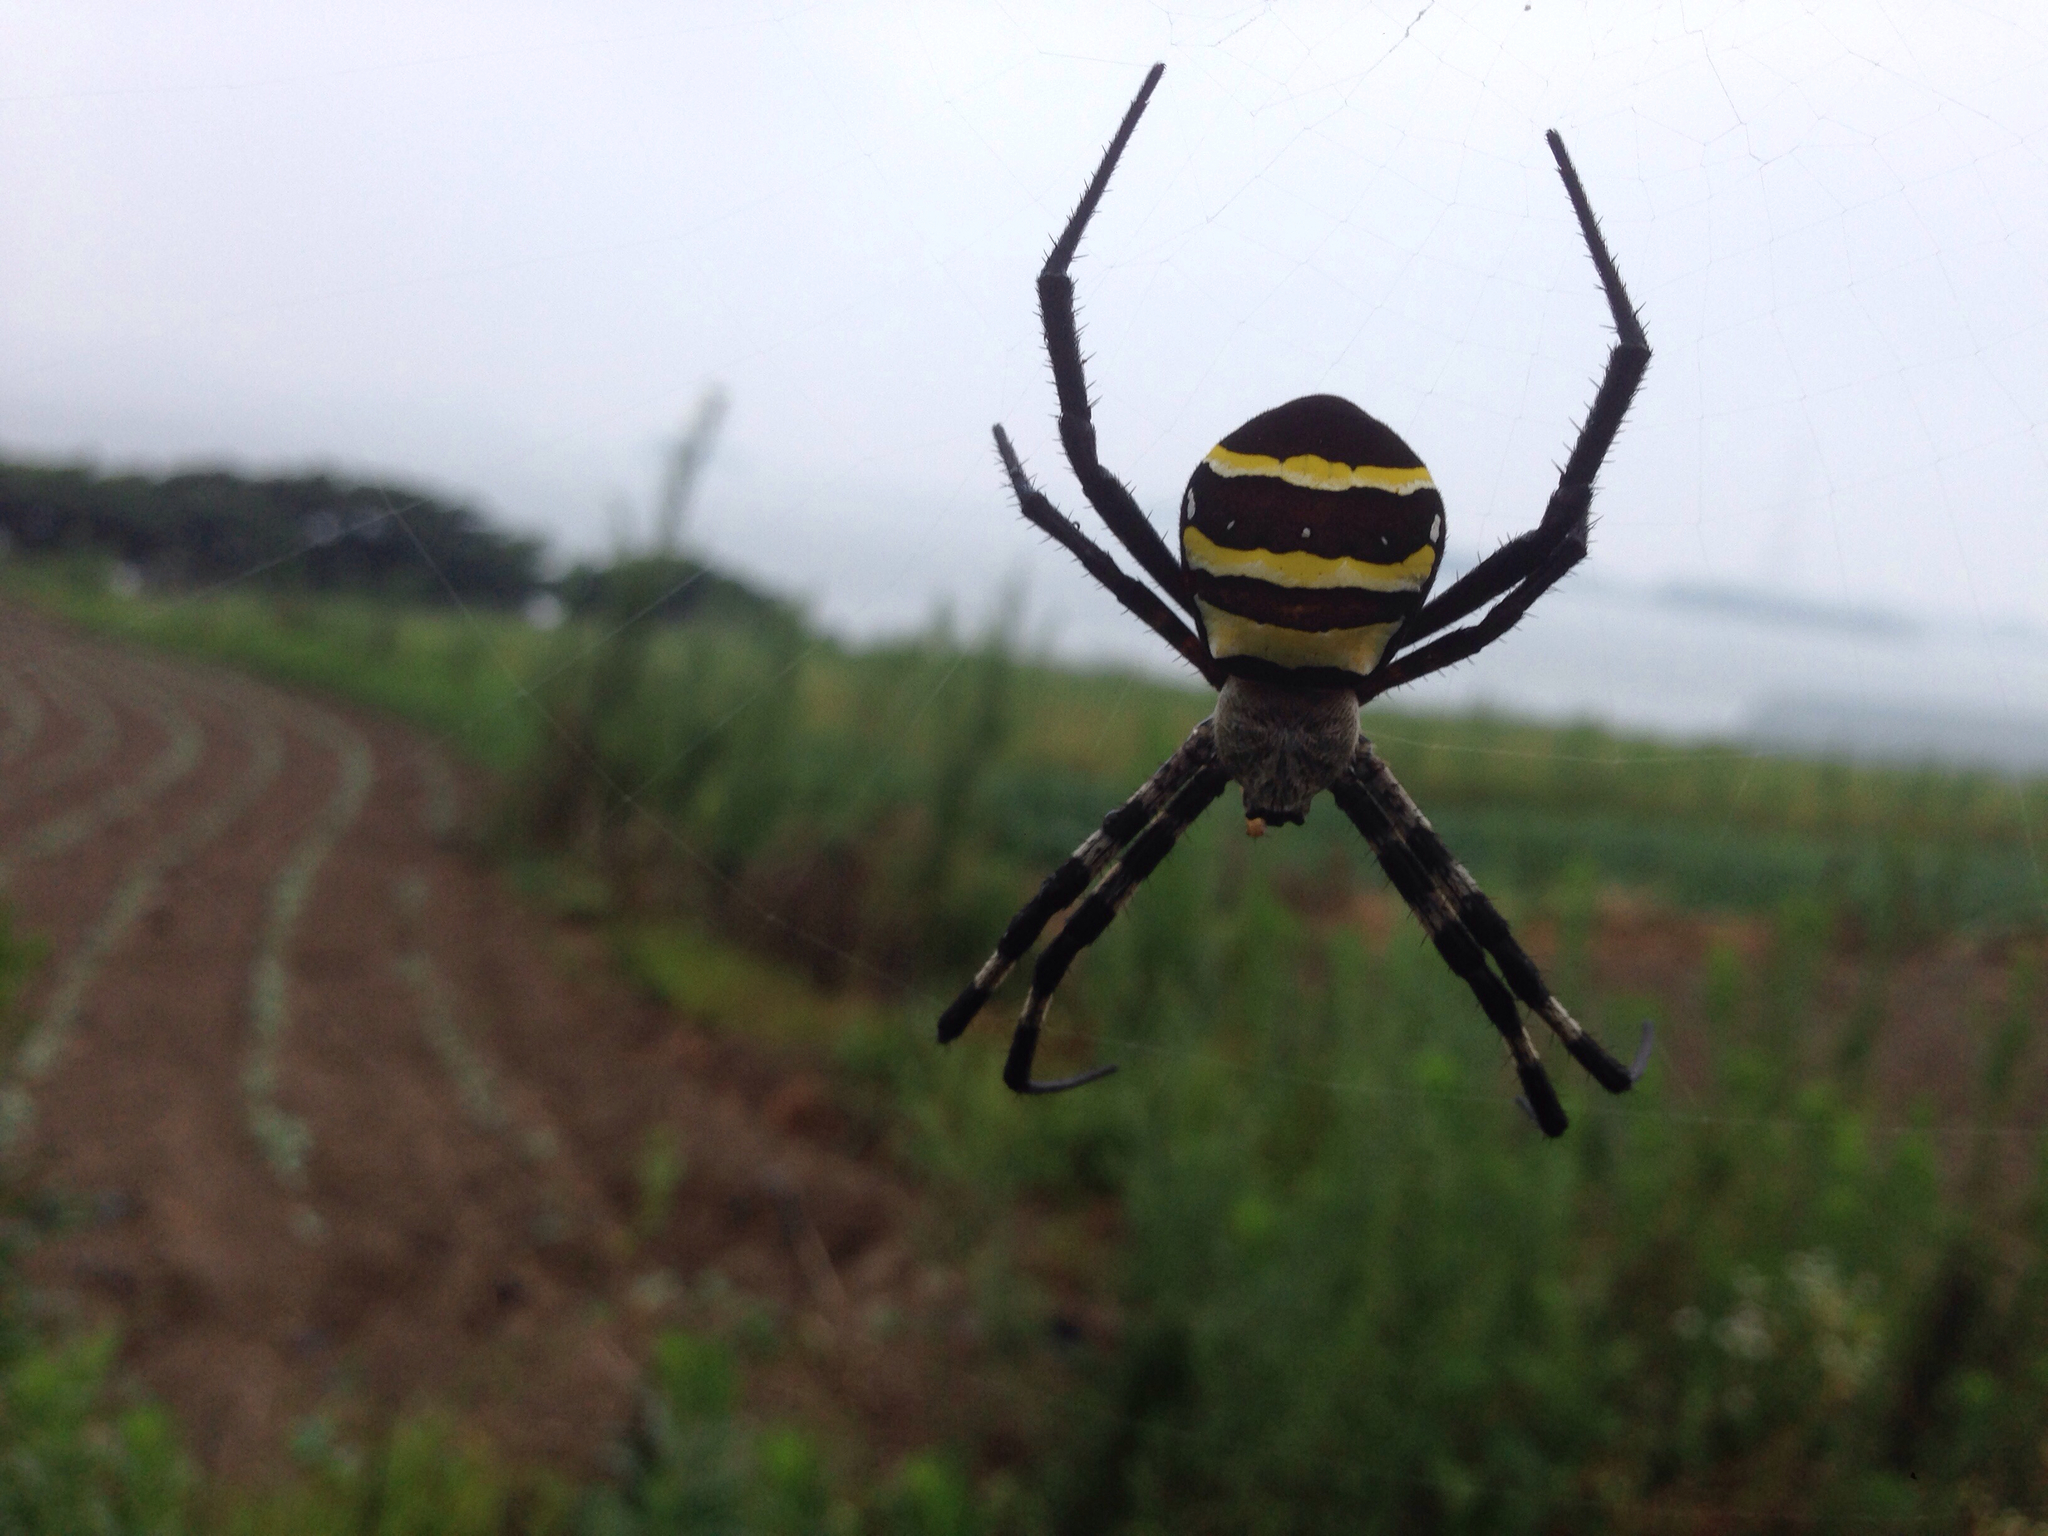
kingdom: Animalia
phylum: Arthropoda
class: Arachnida
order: Araneae
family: Araneidae
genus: Argiope
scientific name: Argiope amoena
